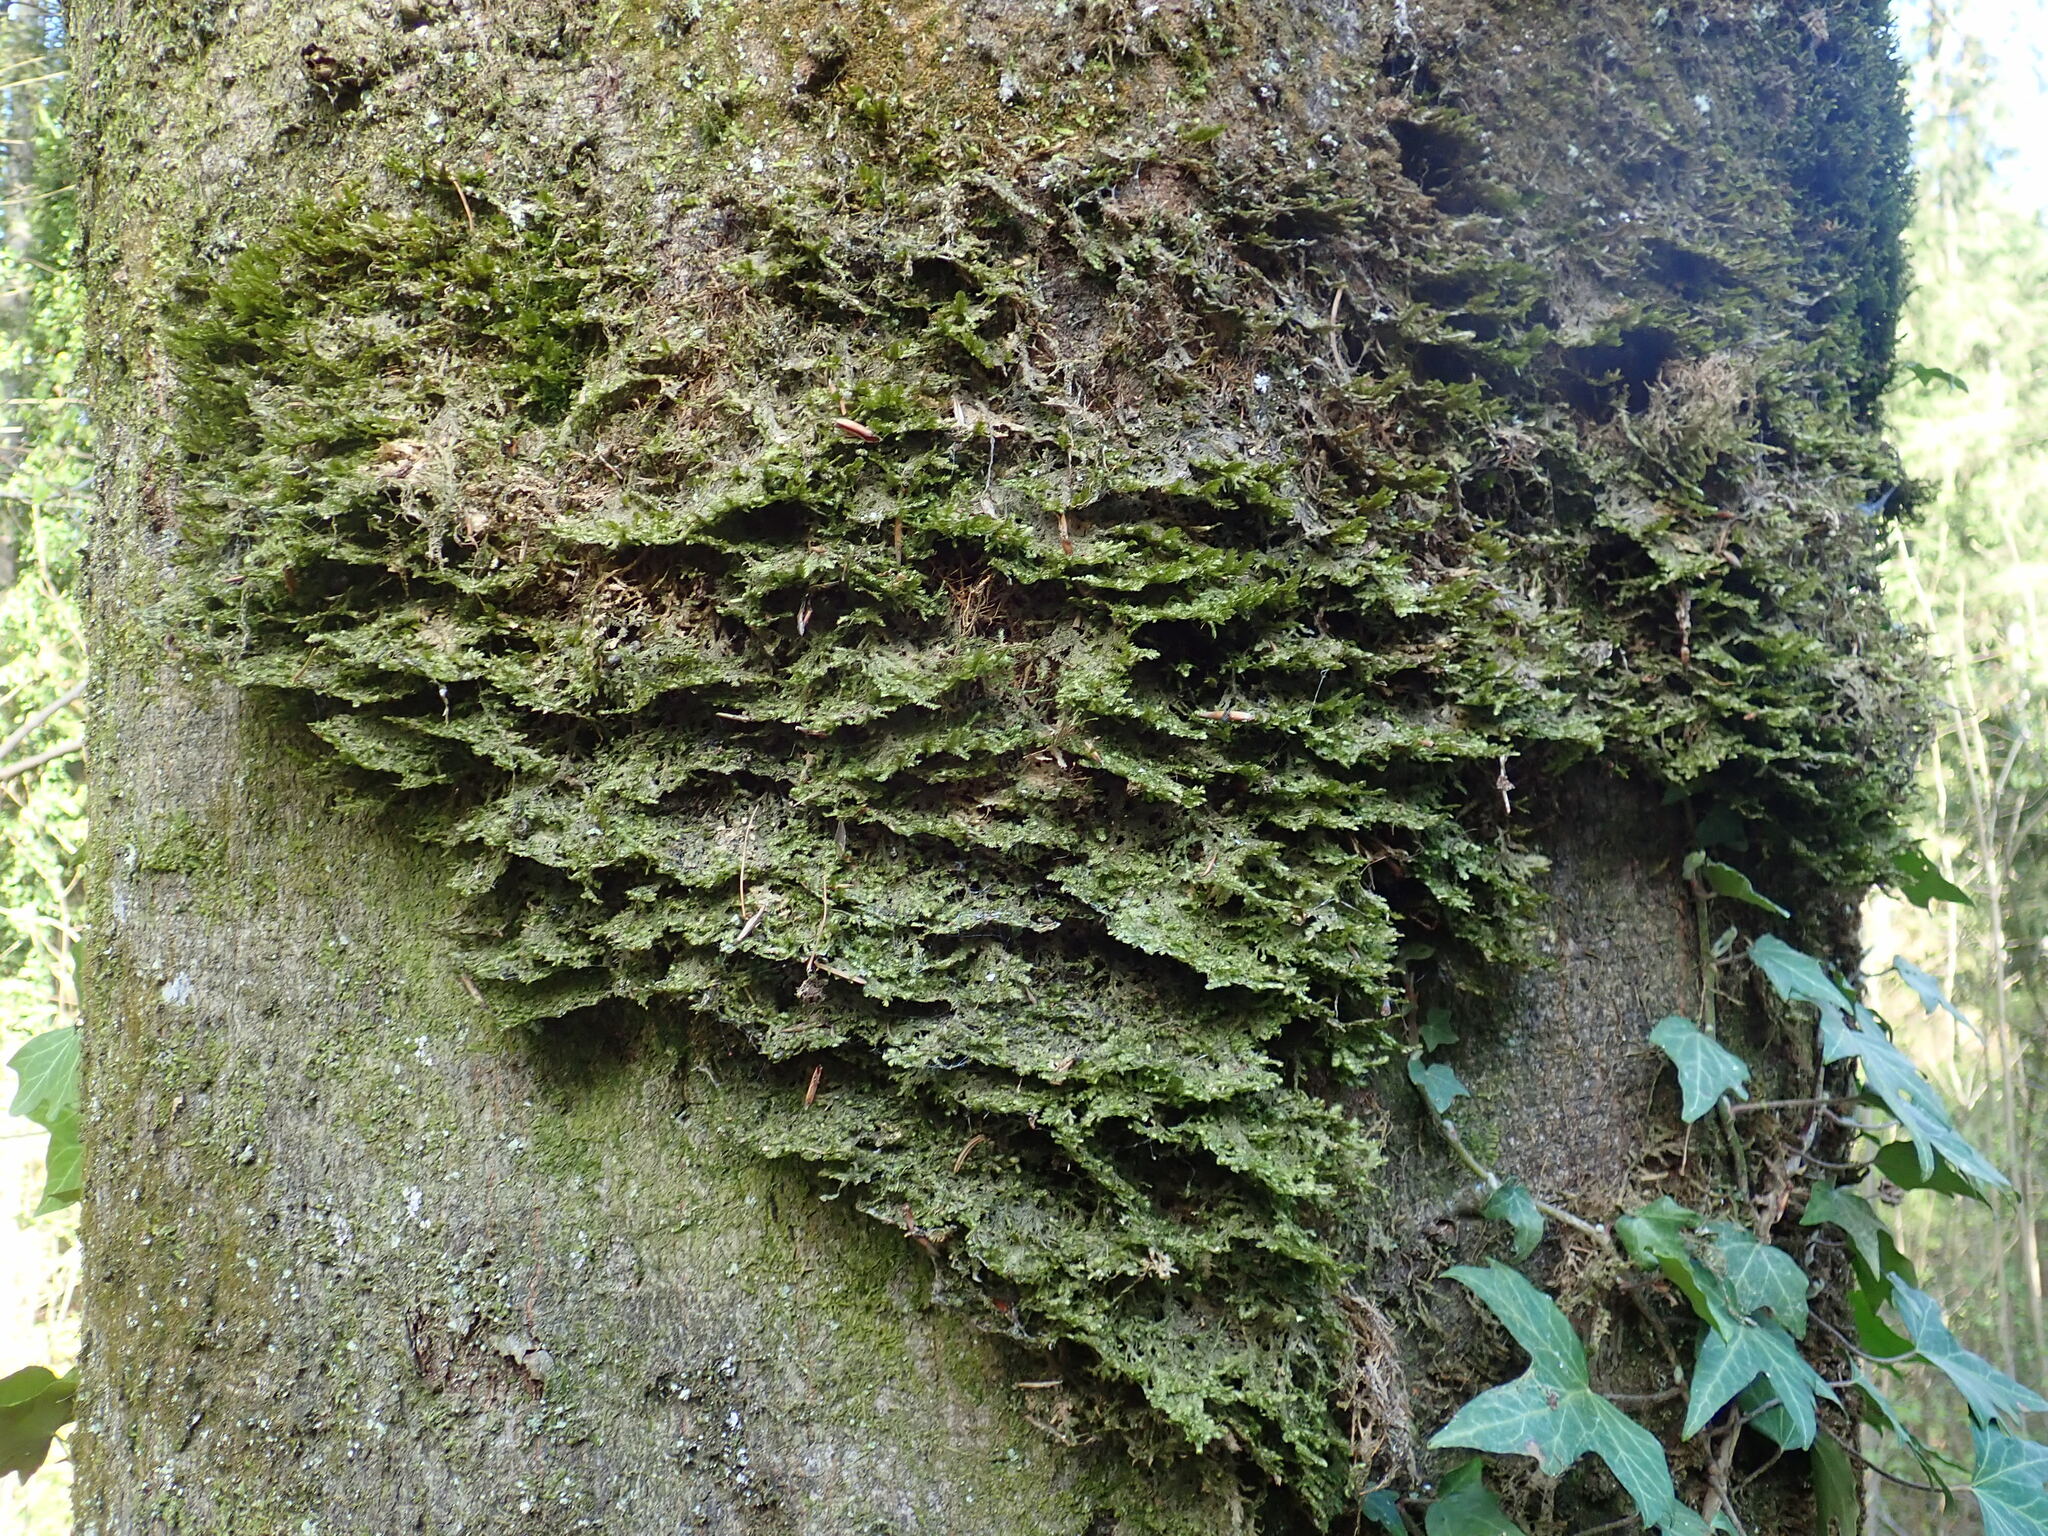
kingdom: Plantae
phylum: Bryophyta
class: Bryopsida
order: Hypnales
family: Neckeraceae
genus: Neckera
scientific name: Neckera pennata
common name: Feathery neckera
